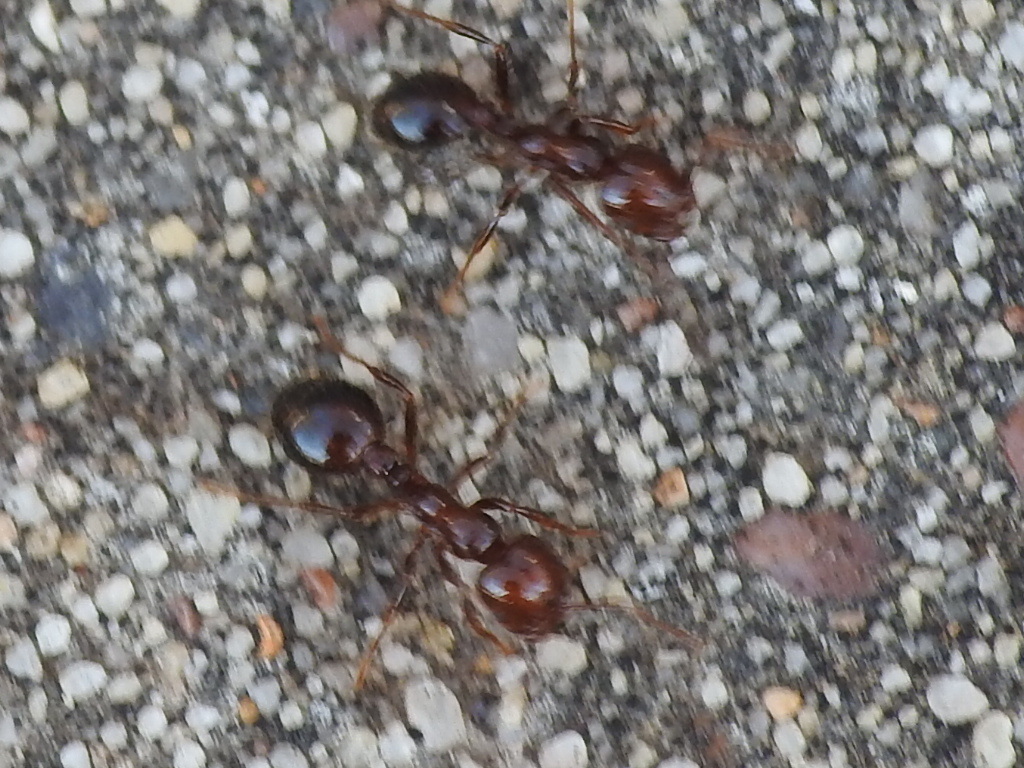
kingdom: Animalia
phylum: Arthropoda
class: Insecta
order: Hymenoptera
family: Formicidae
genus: Solenopsis
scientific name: Solenopsis invicta
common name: Red imported fire ant
